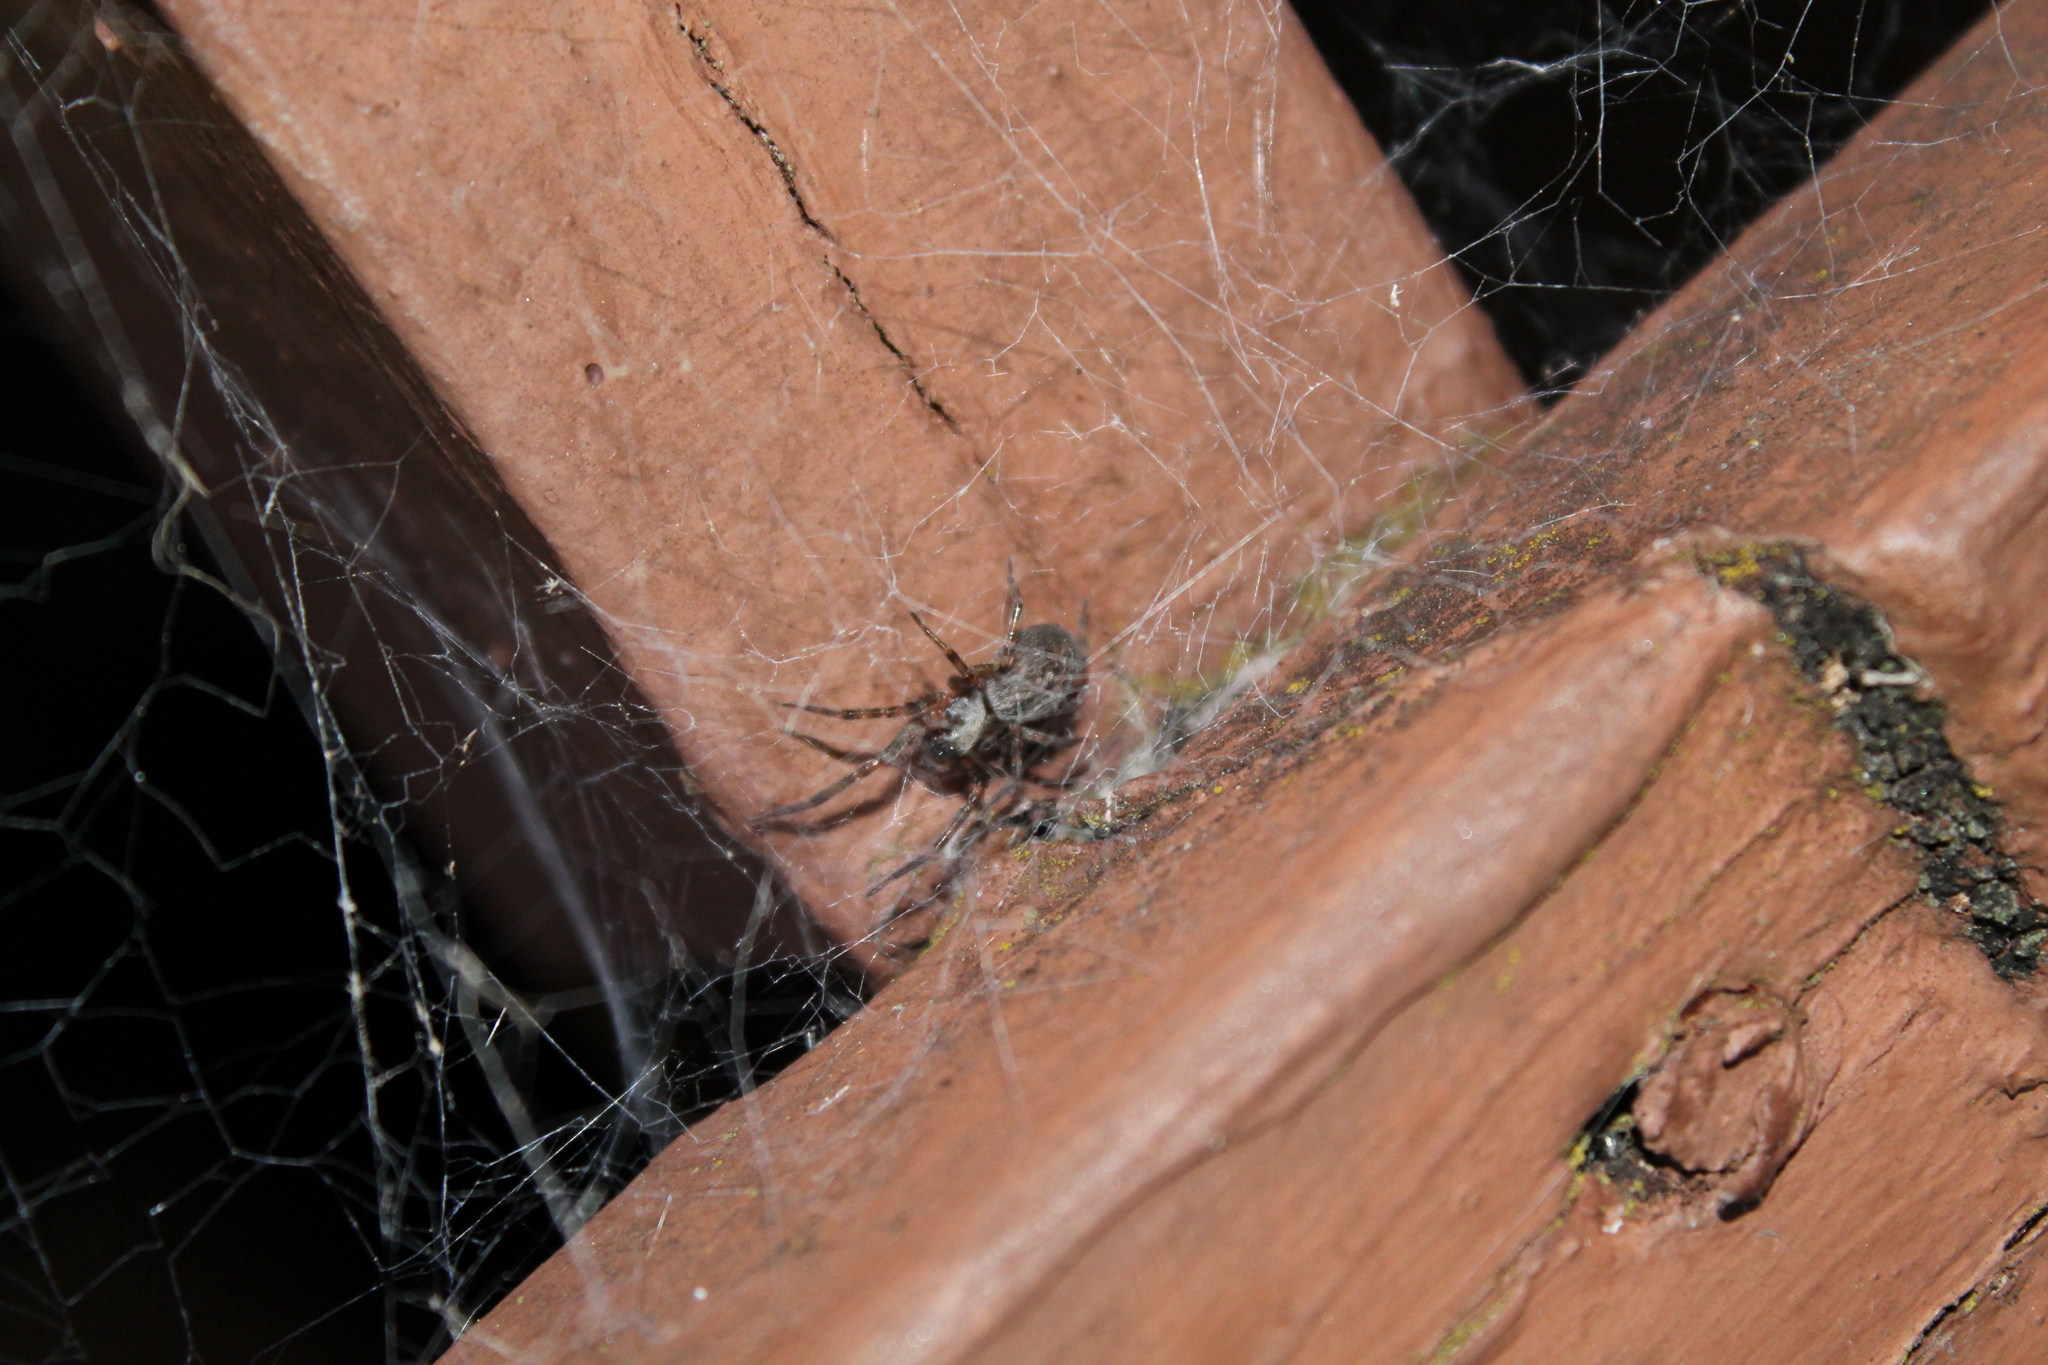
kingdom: Animalia
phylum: Arthropoda
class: Arachnida
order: Araneae
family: Desidae
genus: Badumna
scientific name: Badumna longinqua
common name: Gray house spider
